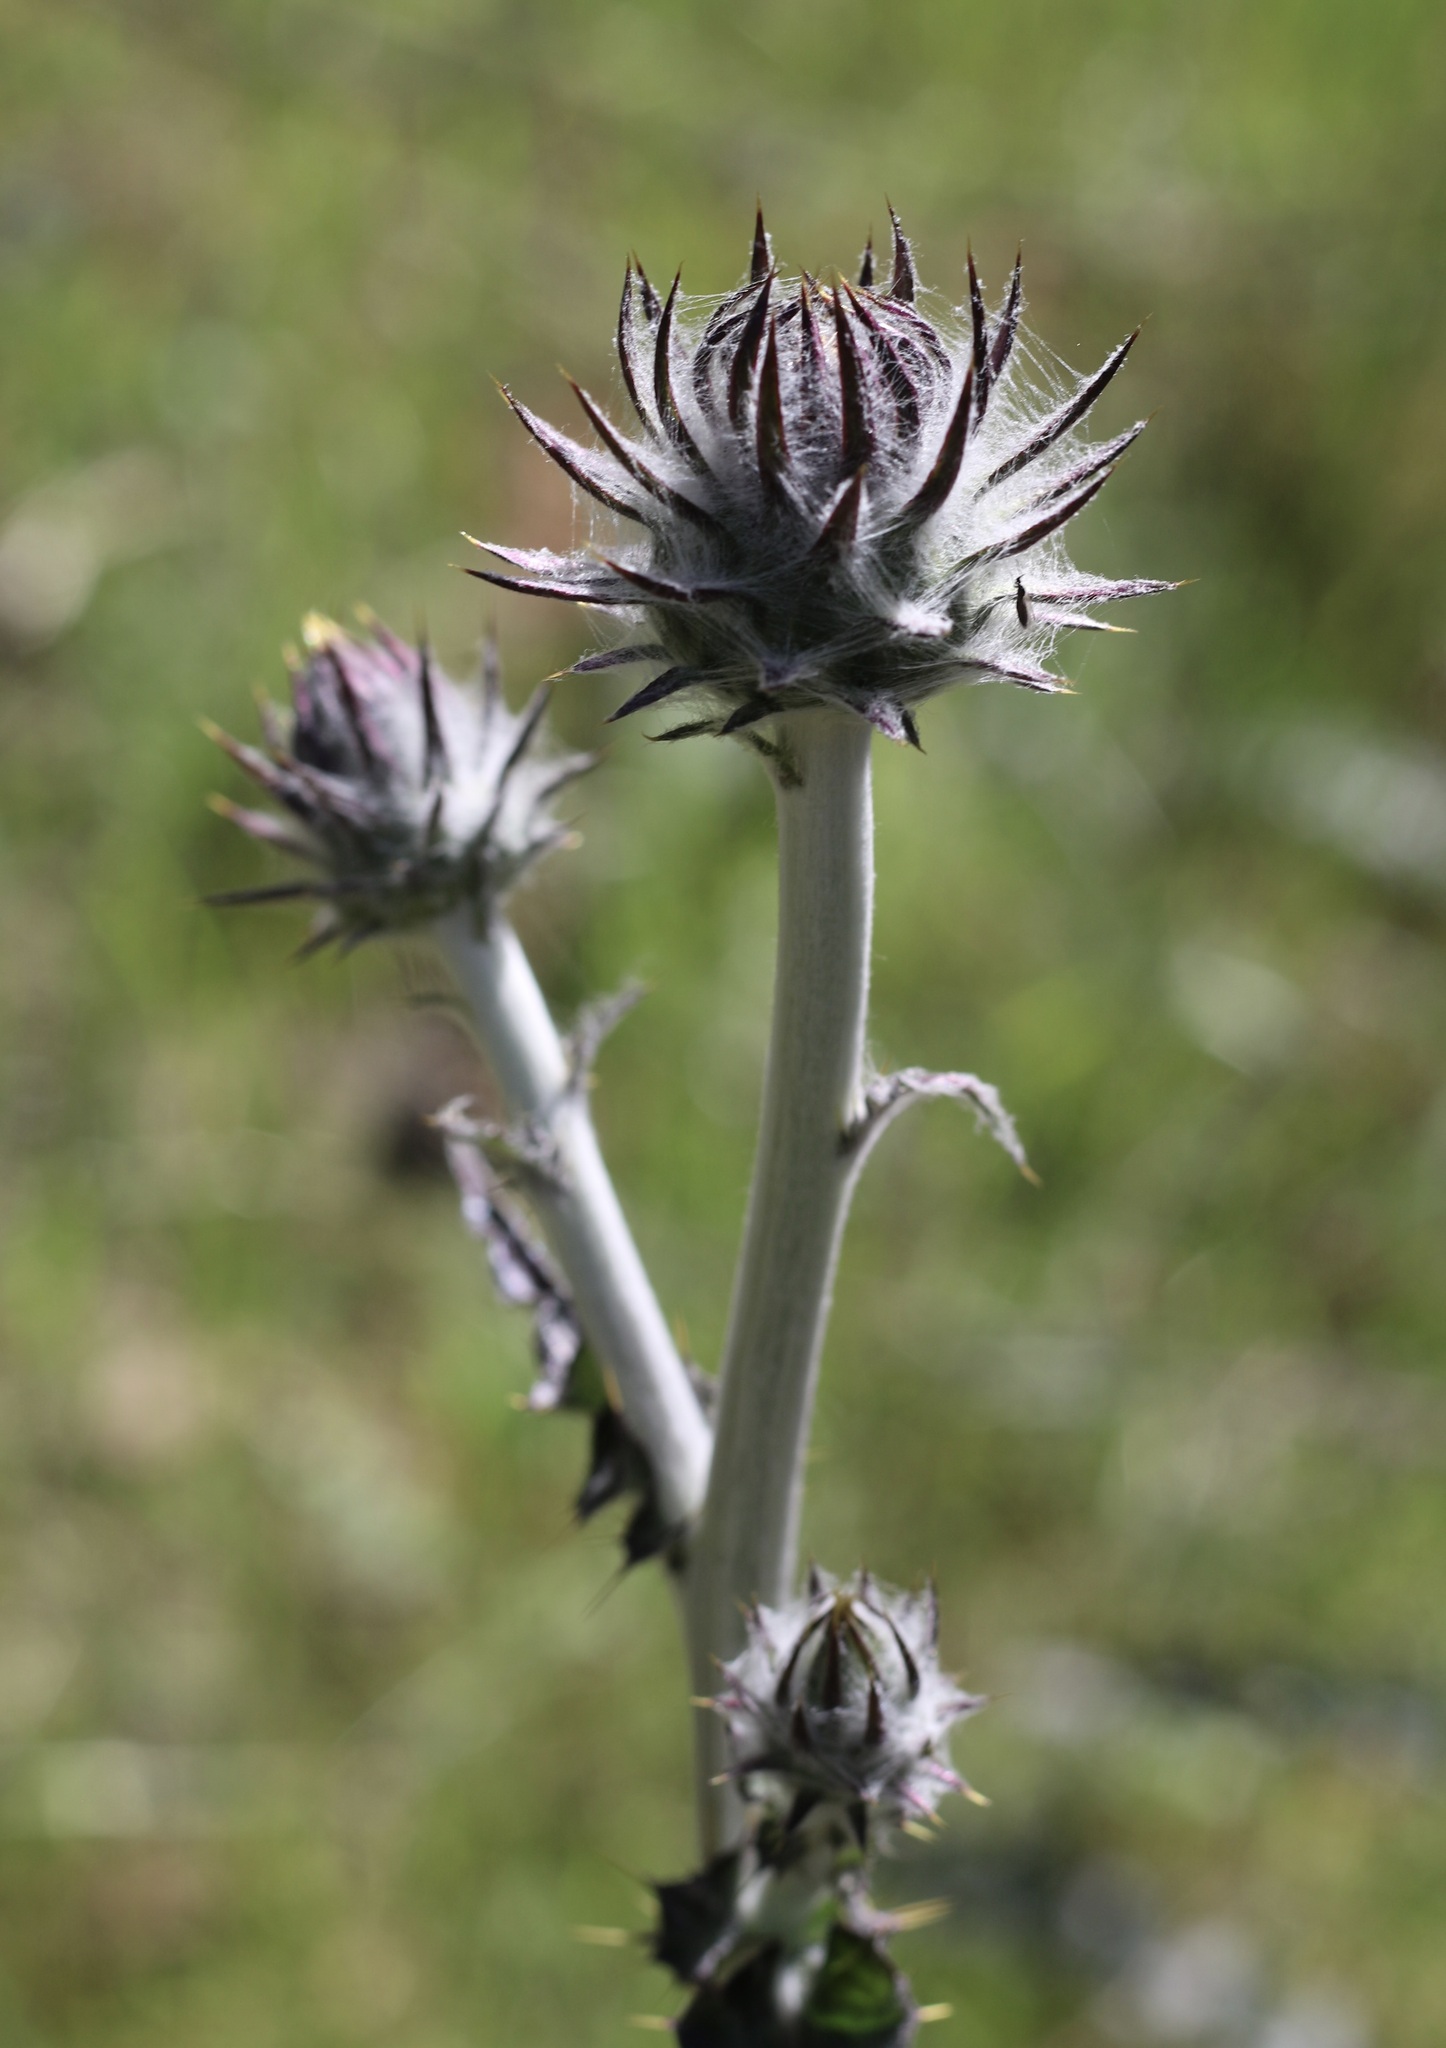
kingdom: Plantae
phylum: Tracheophyta
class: Magnoliopsida
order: Asterales
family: Asteraceae
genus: Cirsium
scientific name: Cirsium occidentale
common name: Western thistle
